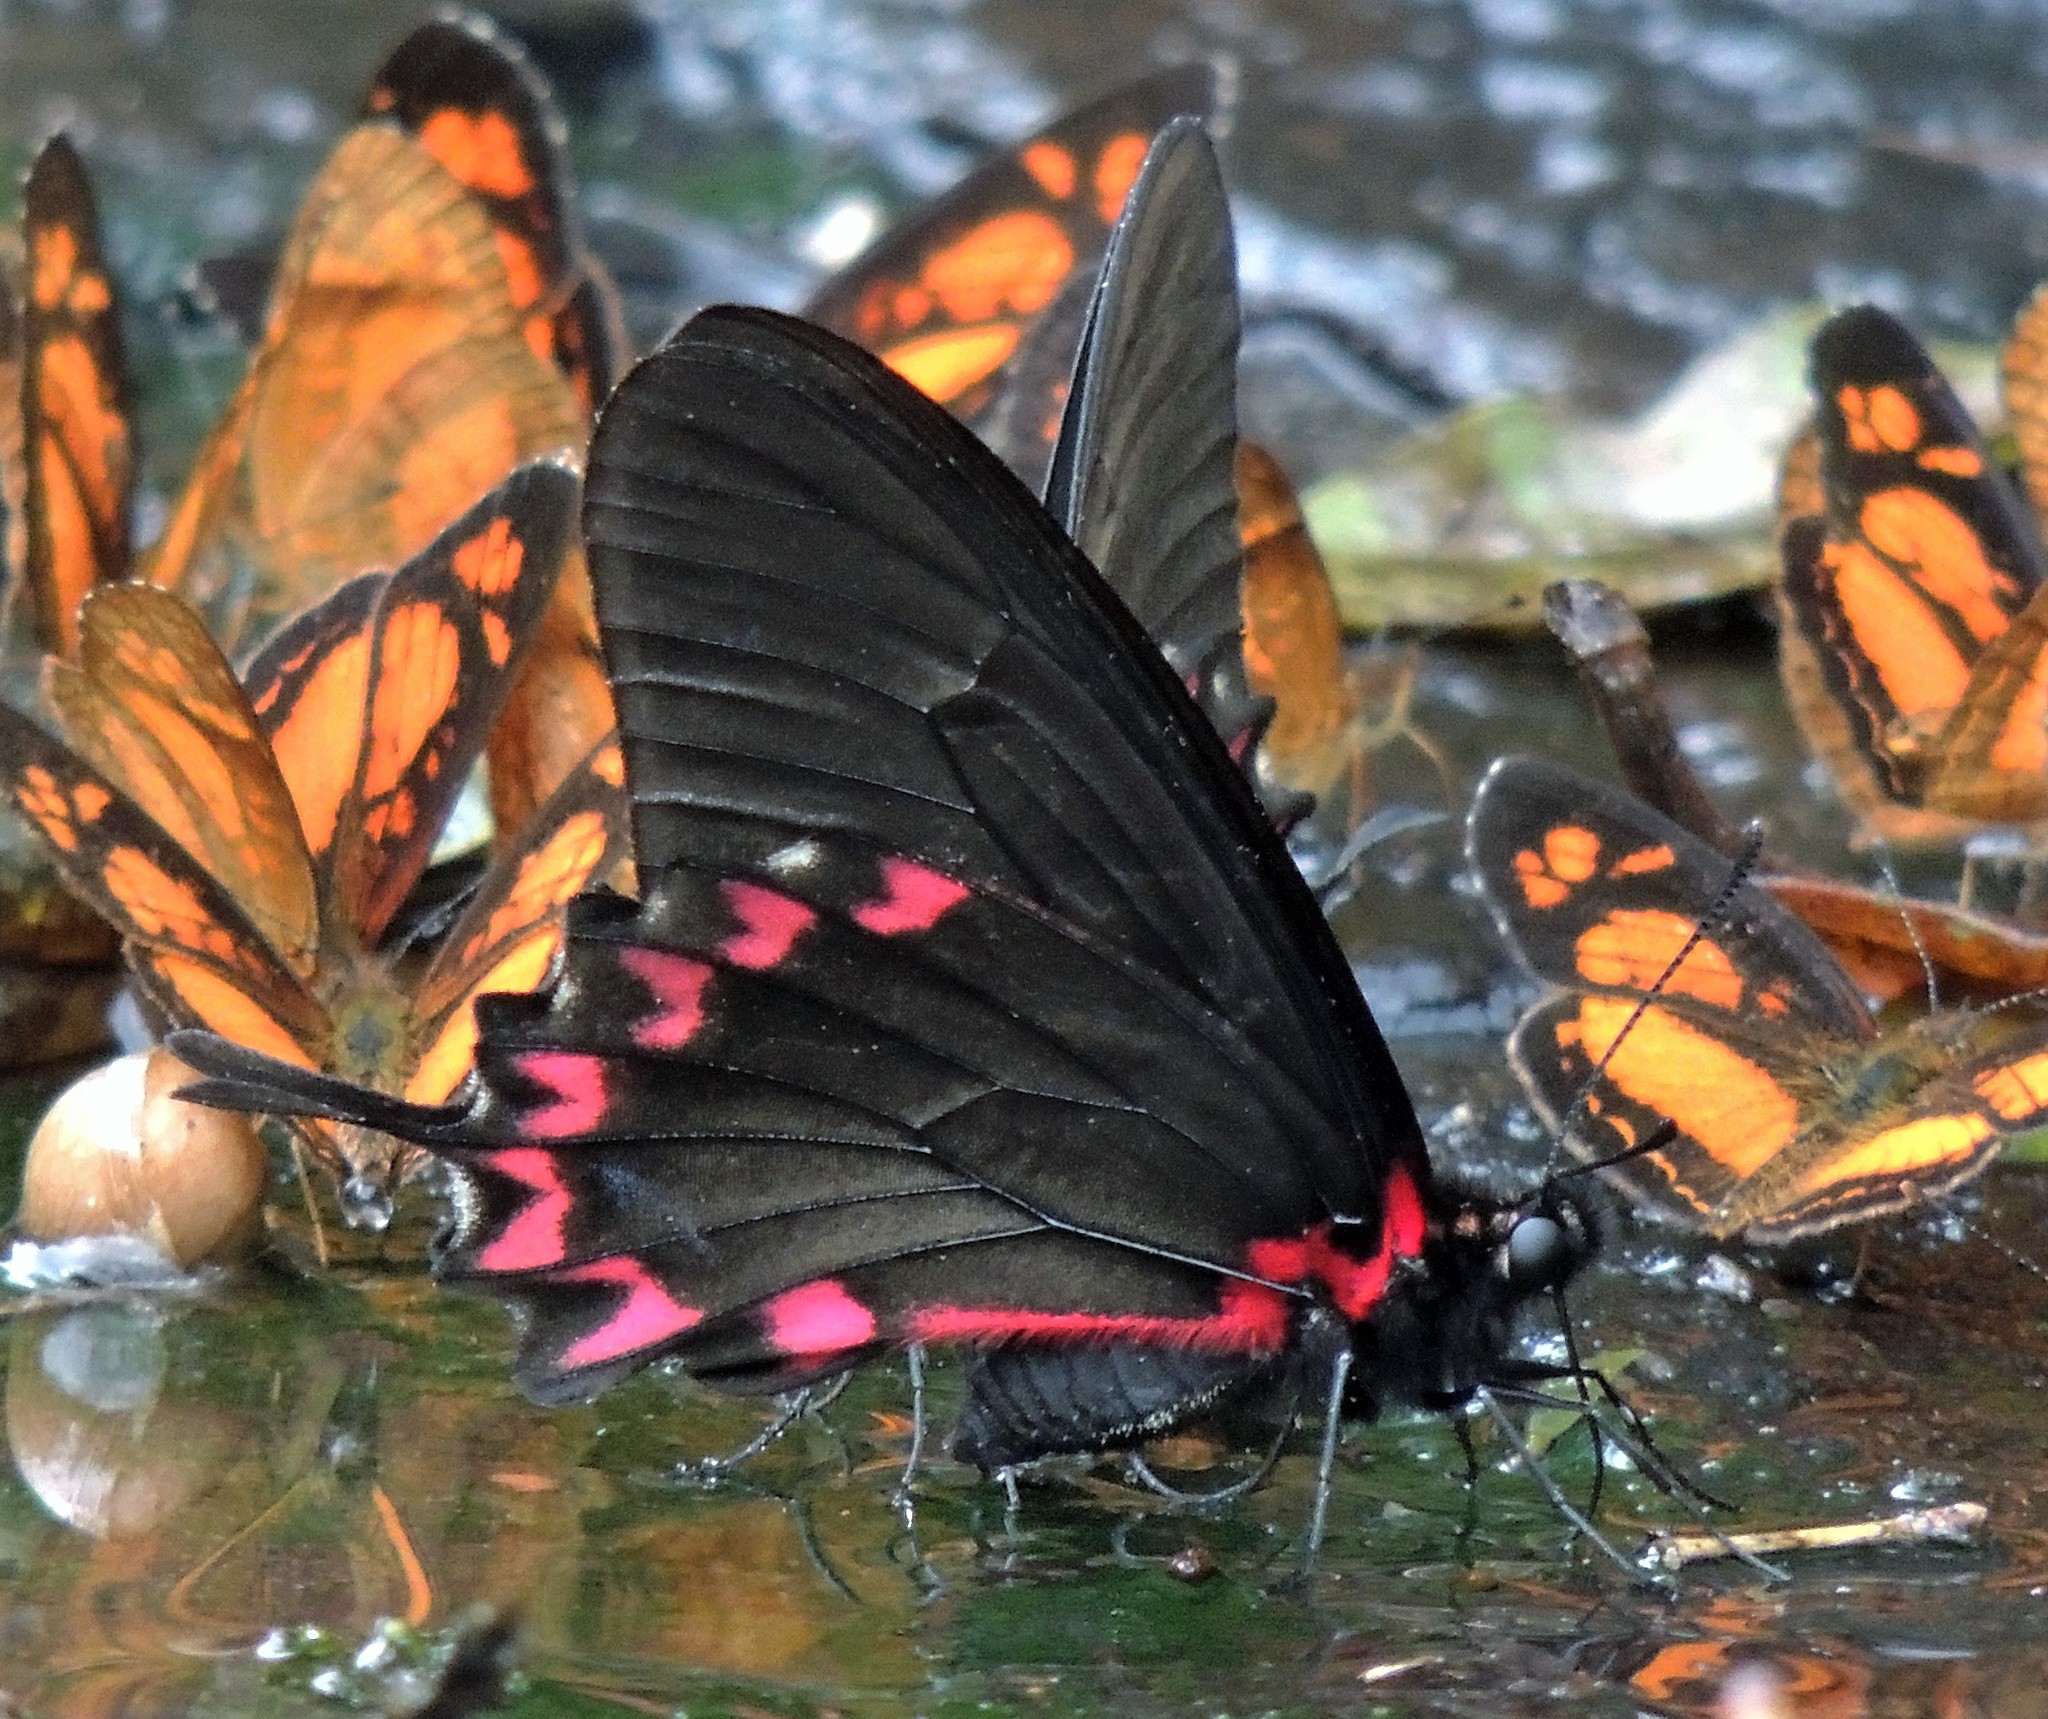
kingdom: Animalia
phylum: Arthropoda
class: Insecta
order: Lepidoptera
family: Papilionidae
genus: Mimoides
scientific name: Mimoides lysithous
